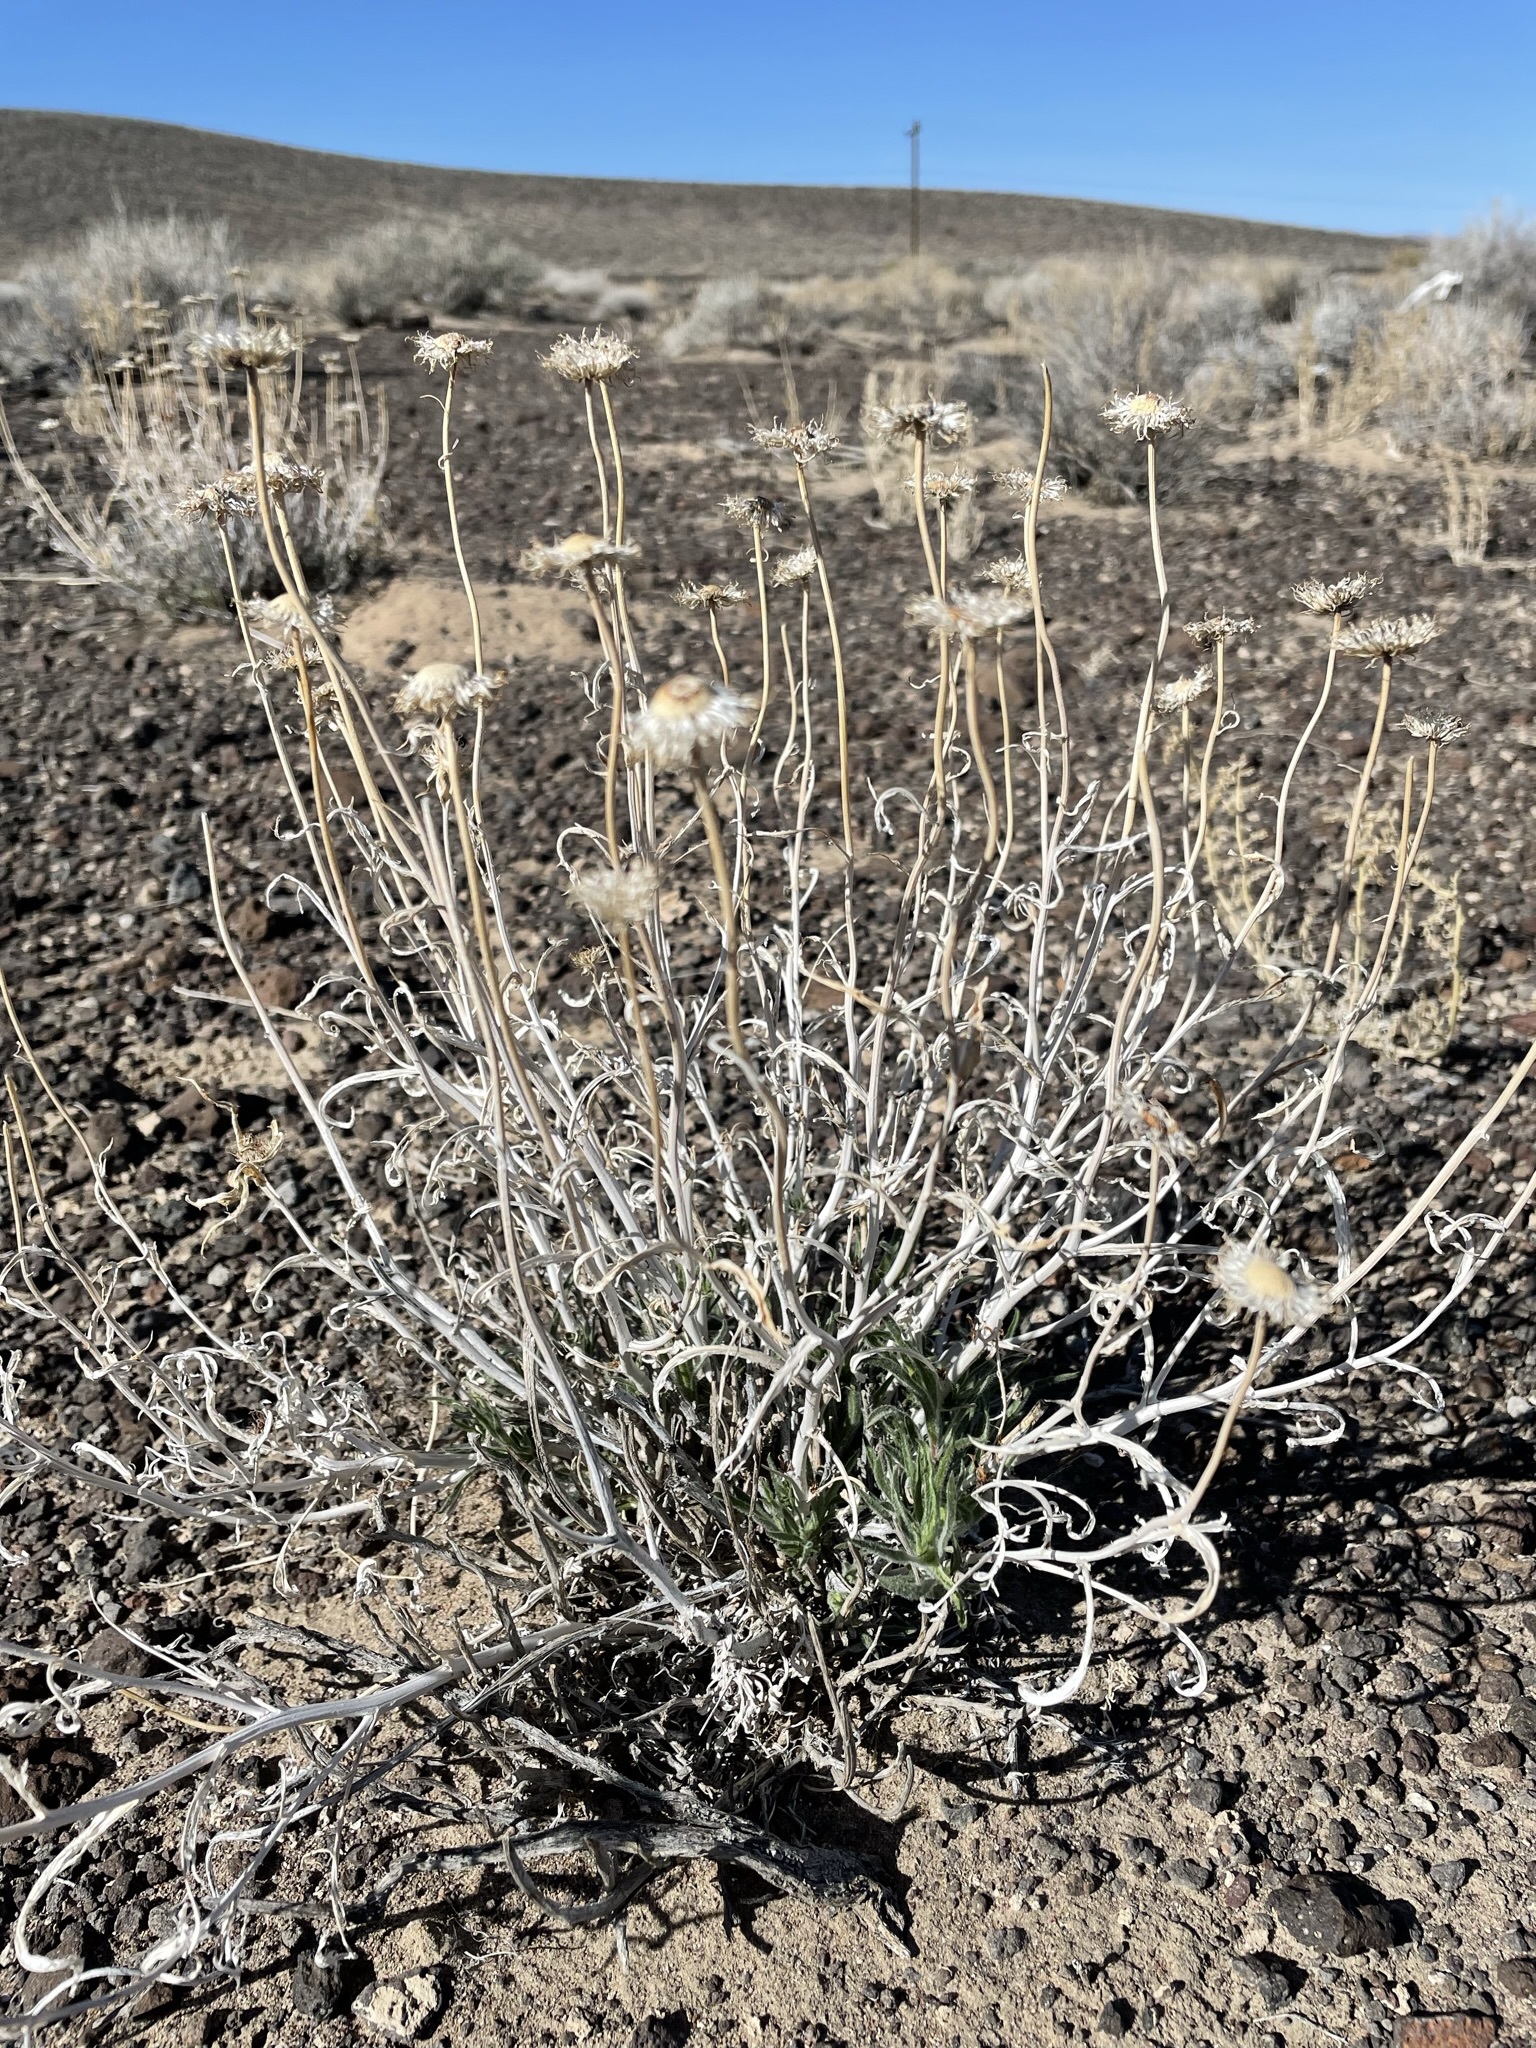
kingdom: Plantae
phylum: Tracheophyta
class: Magnoliopsida
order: Asterales
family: Asteraceae
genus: Xylorhiza
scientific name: Xylorhiza tortifolia
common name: Hurt-leaf woody-aster
